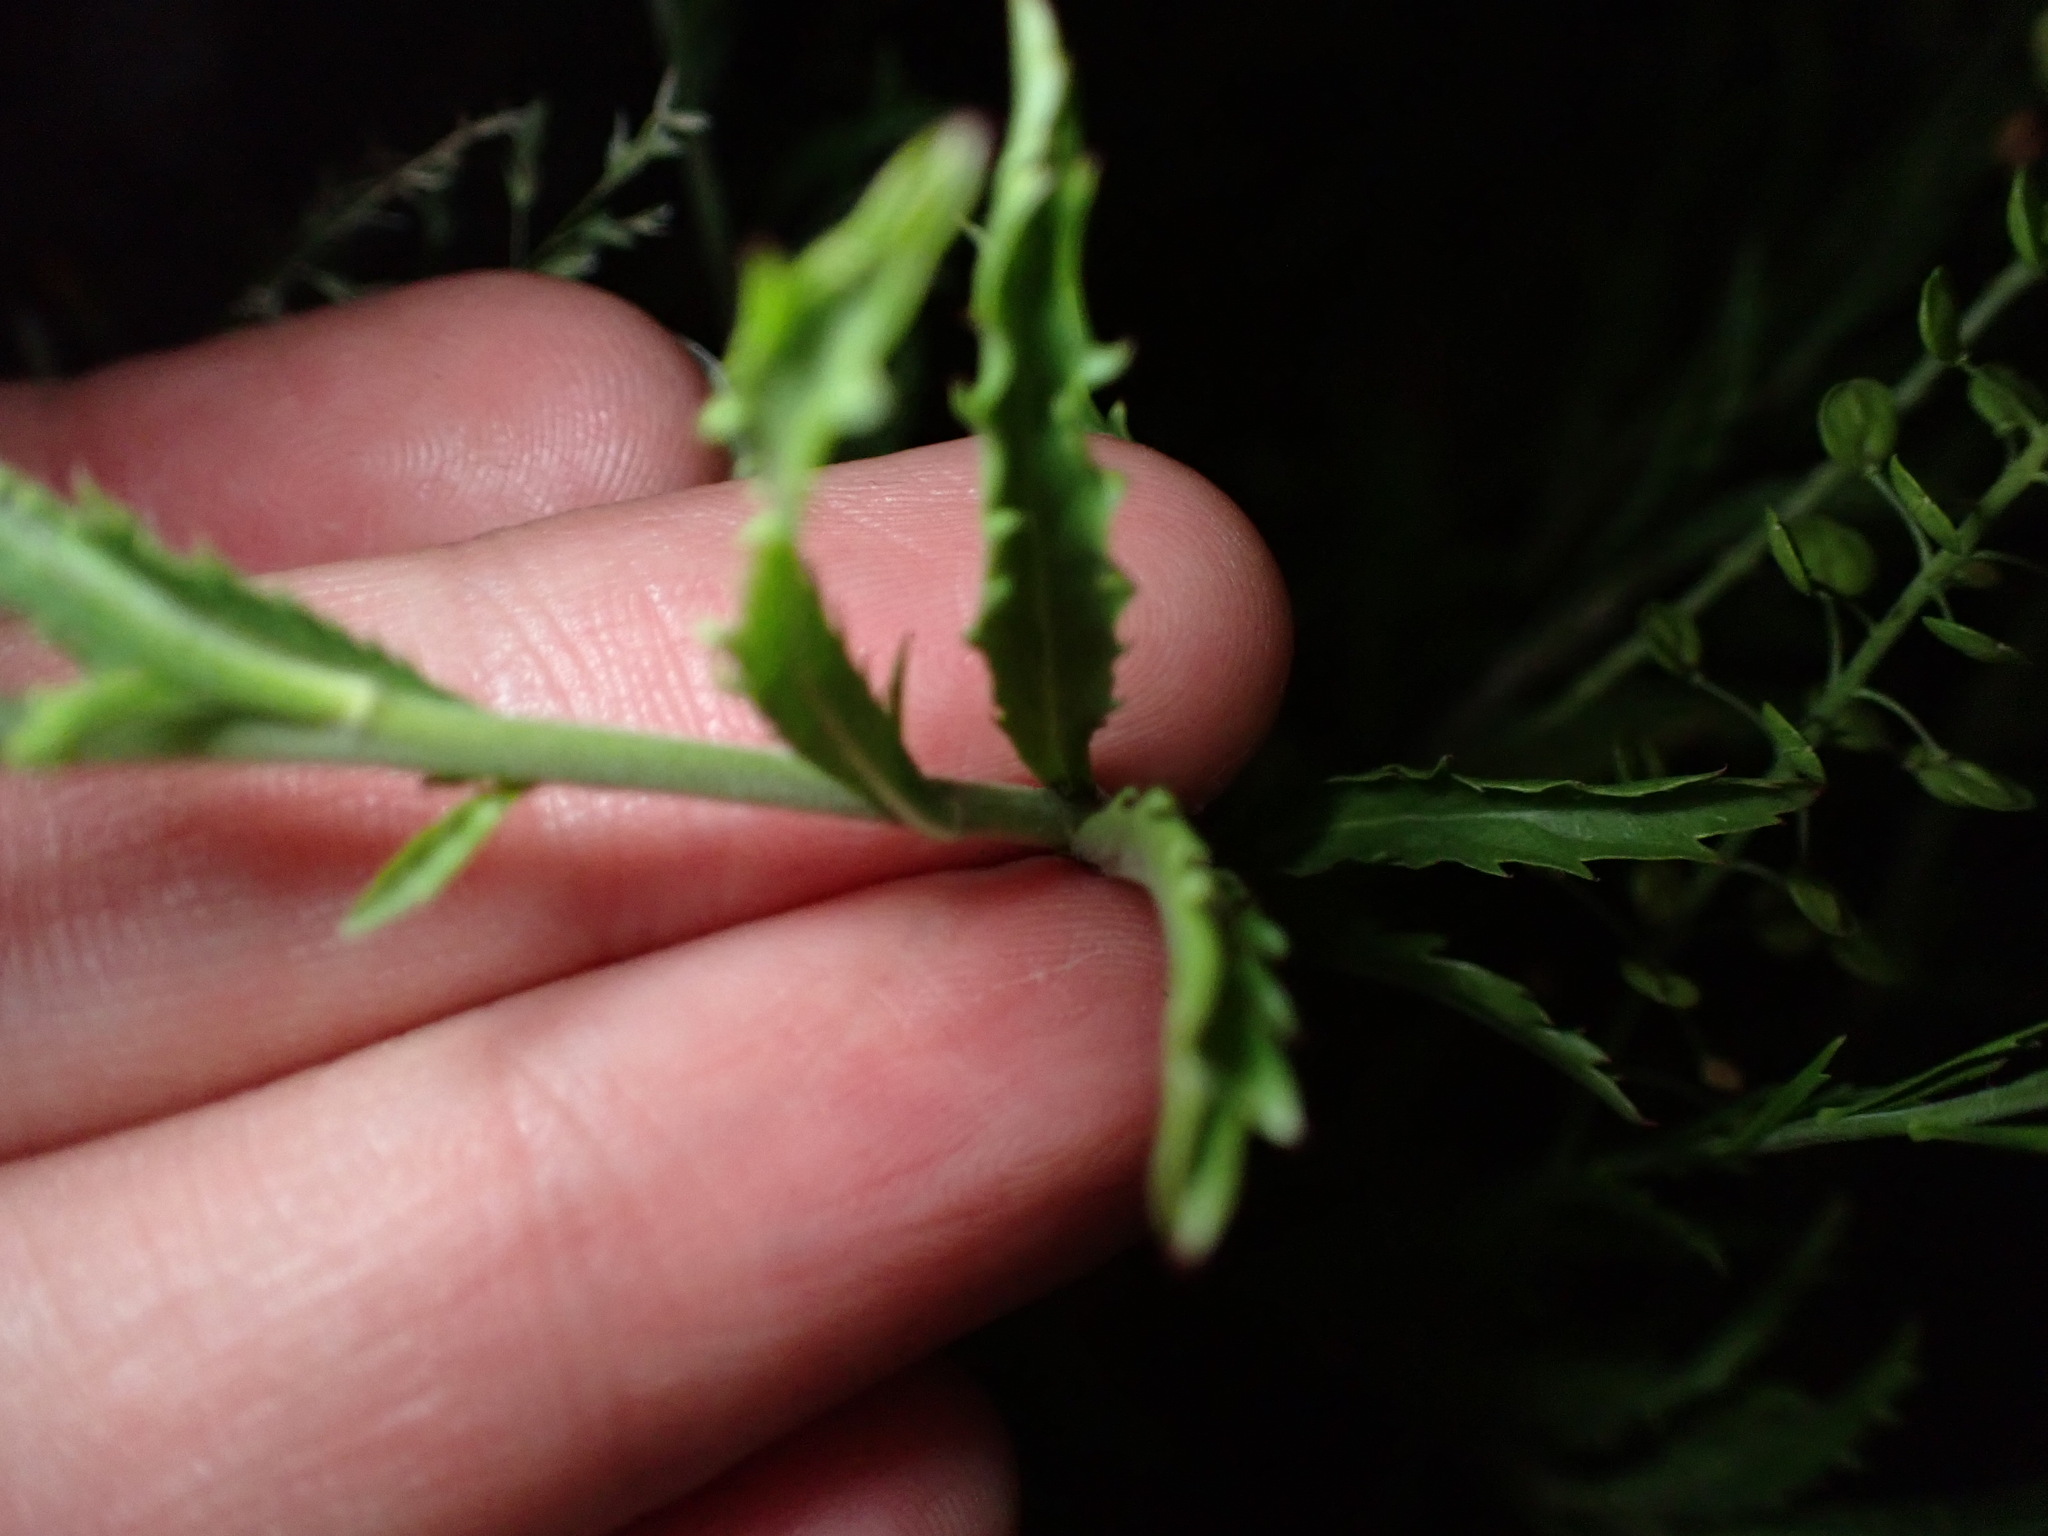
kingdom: Plantae
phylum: Tracheophyta
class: Magnoliopsida
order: Brassicales
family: Brassicaceae
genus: Lepidium
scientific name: Lepidium montanum
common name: Mountain pepperplant
